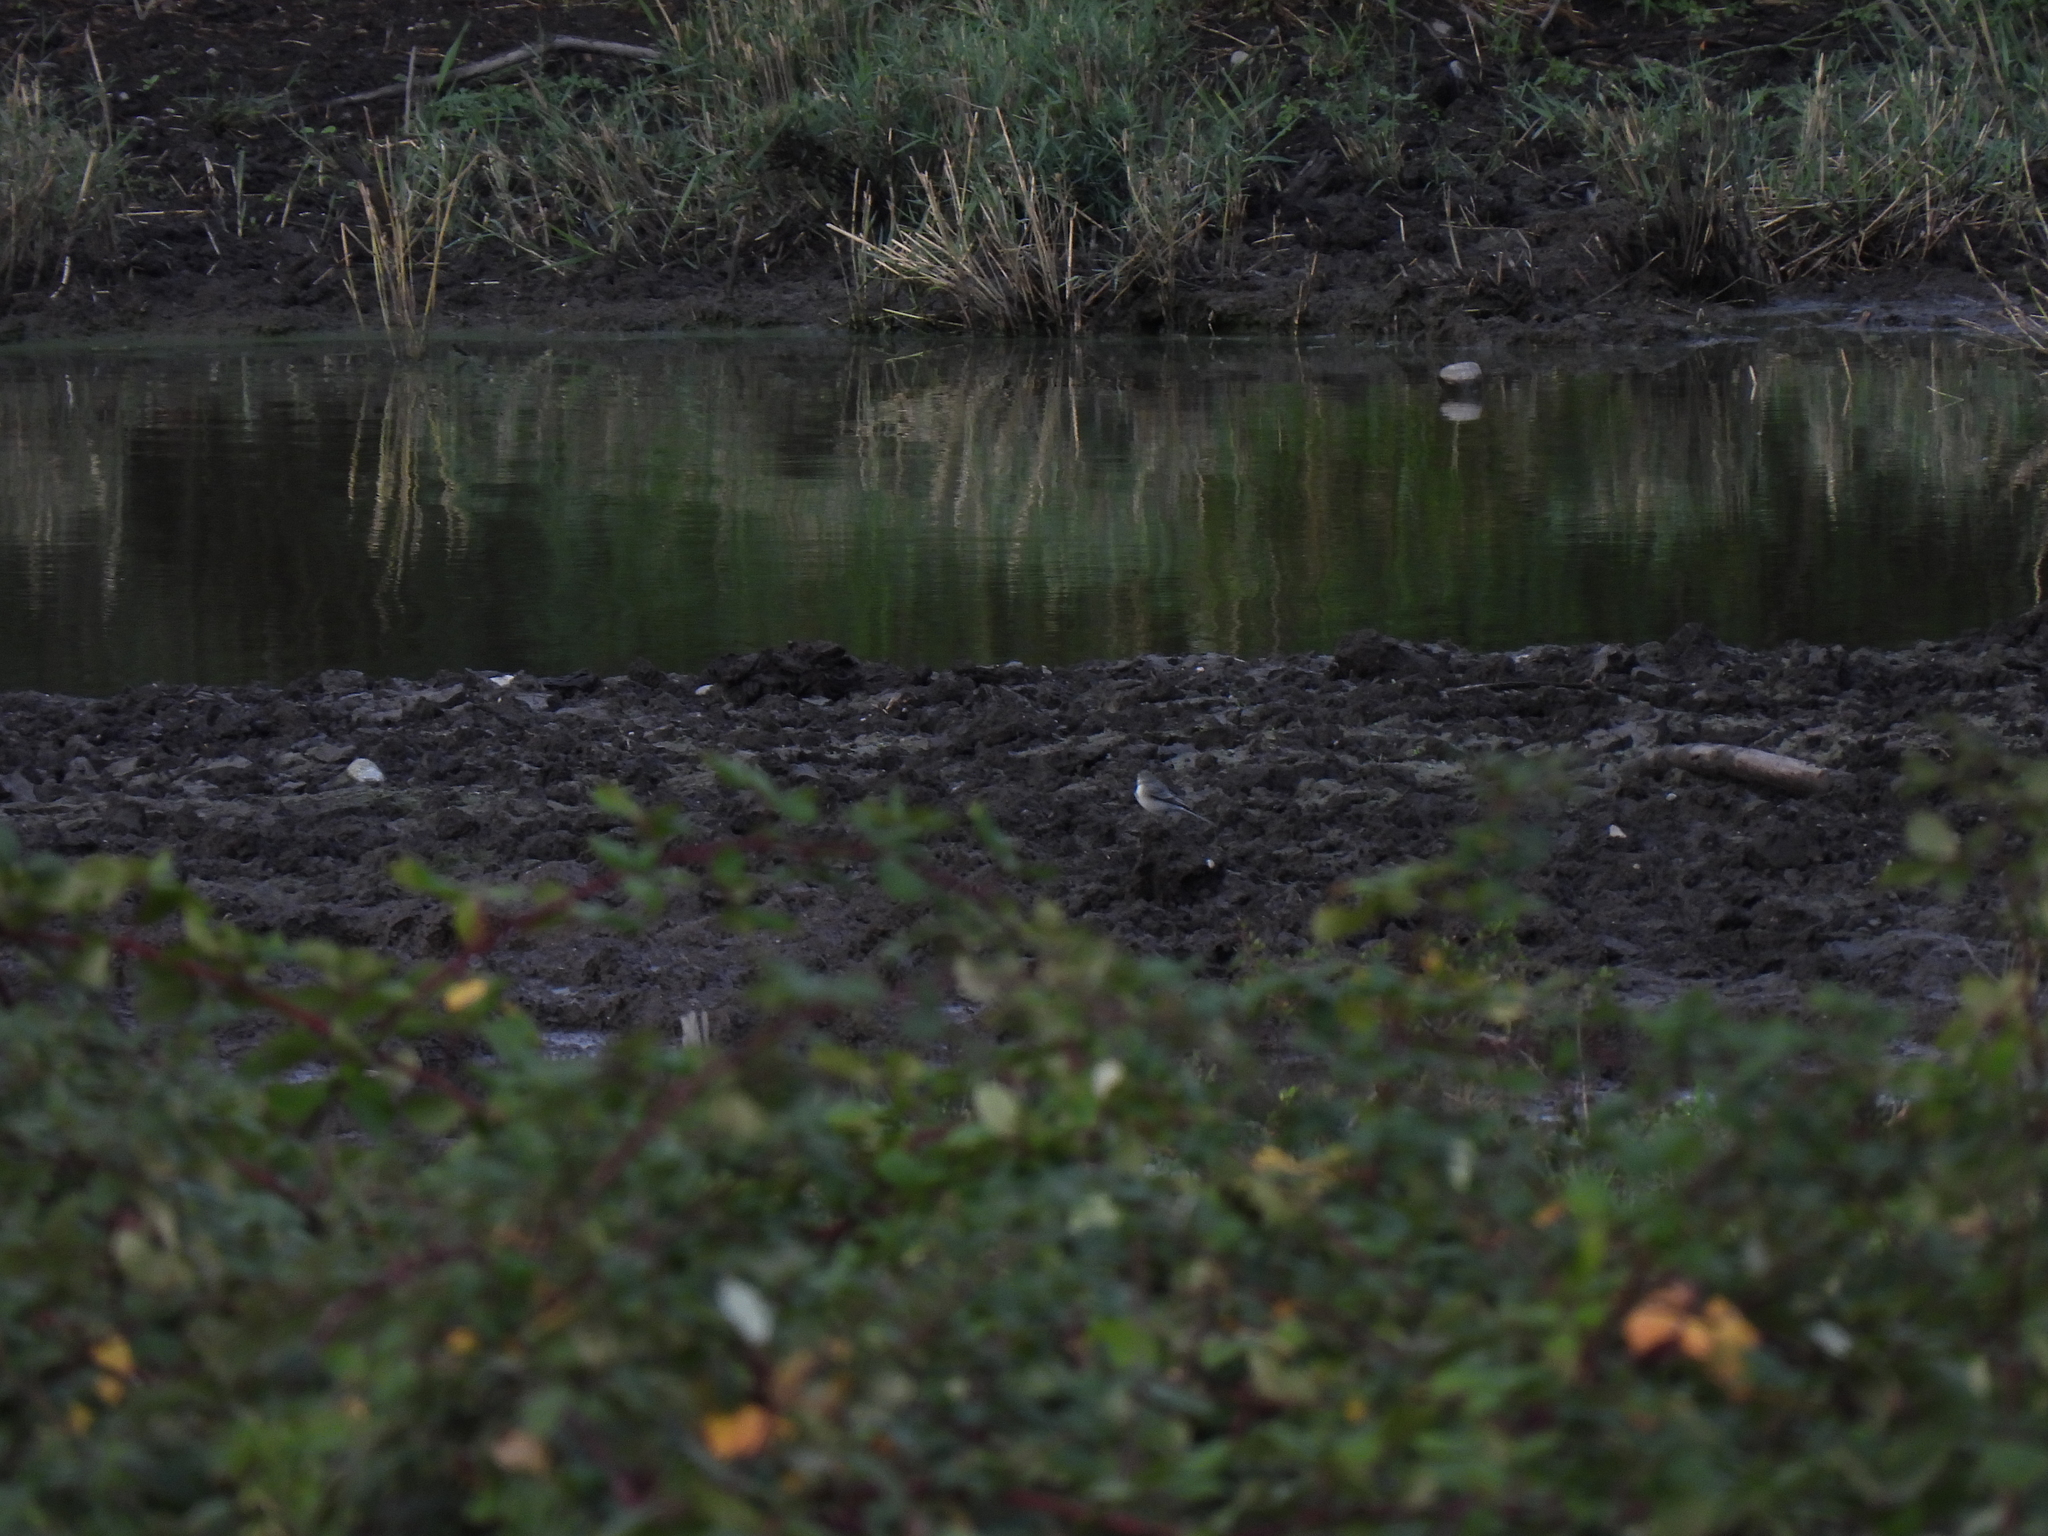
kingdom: Animalia
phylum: Chordata
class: Aves
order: Passeriformes
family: Motacillidae
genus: Motacilla
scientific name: Motacilla alba
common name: White wagtail
